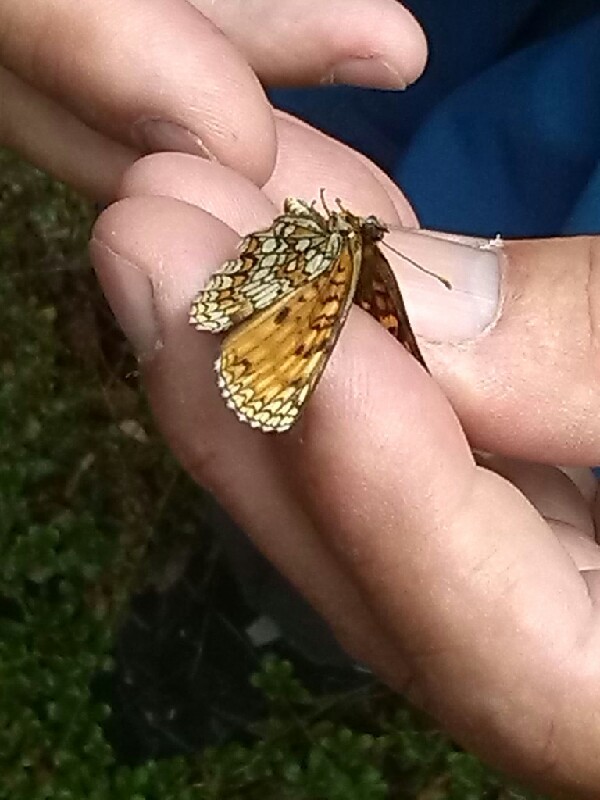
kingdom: Animalia
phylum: Arthropoda
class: Insecta
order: Lepidoptera
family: Nymphalidae
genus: Melitaea
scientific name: Melitaea athalia
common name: Heath fritillary
